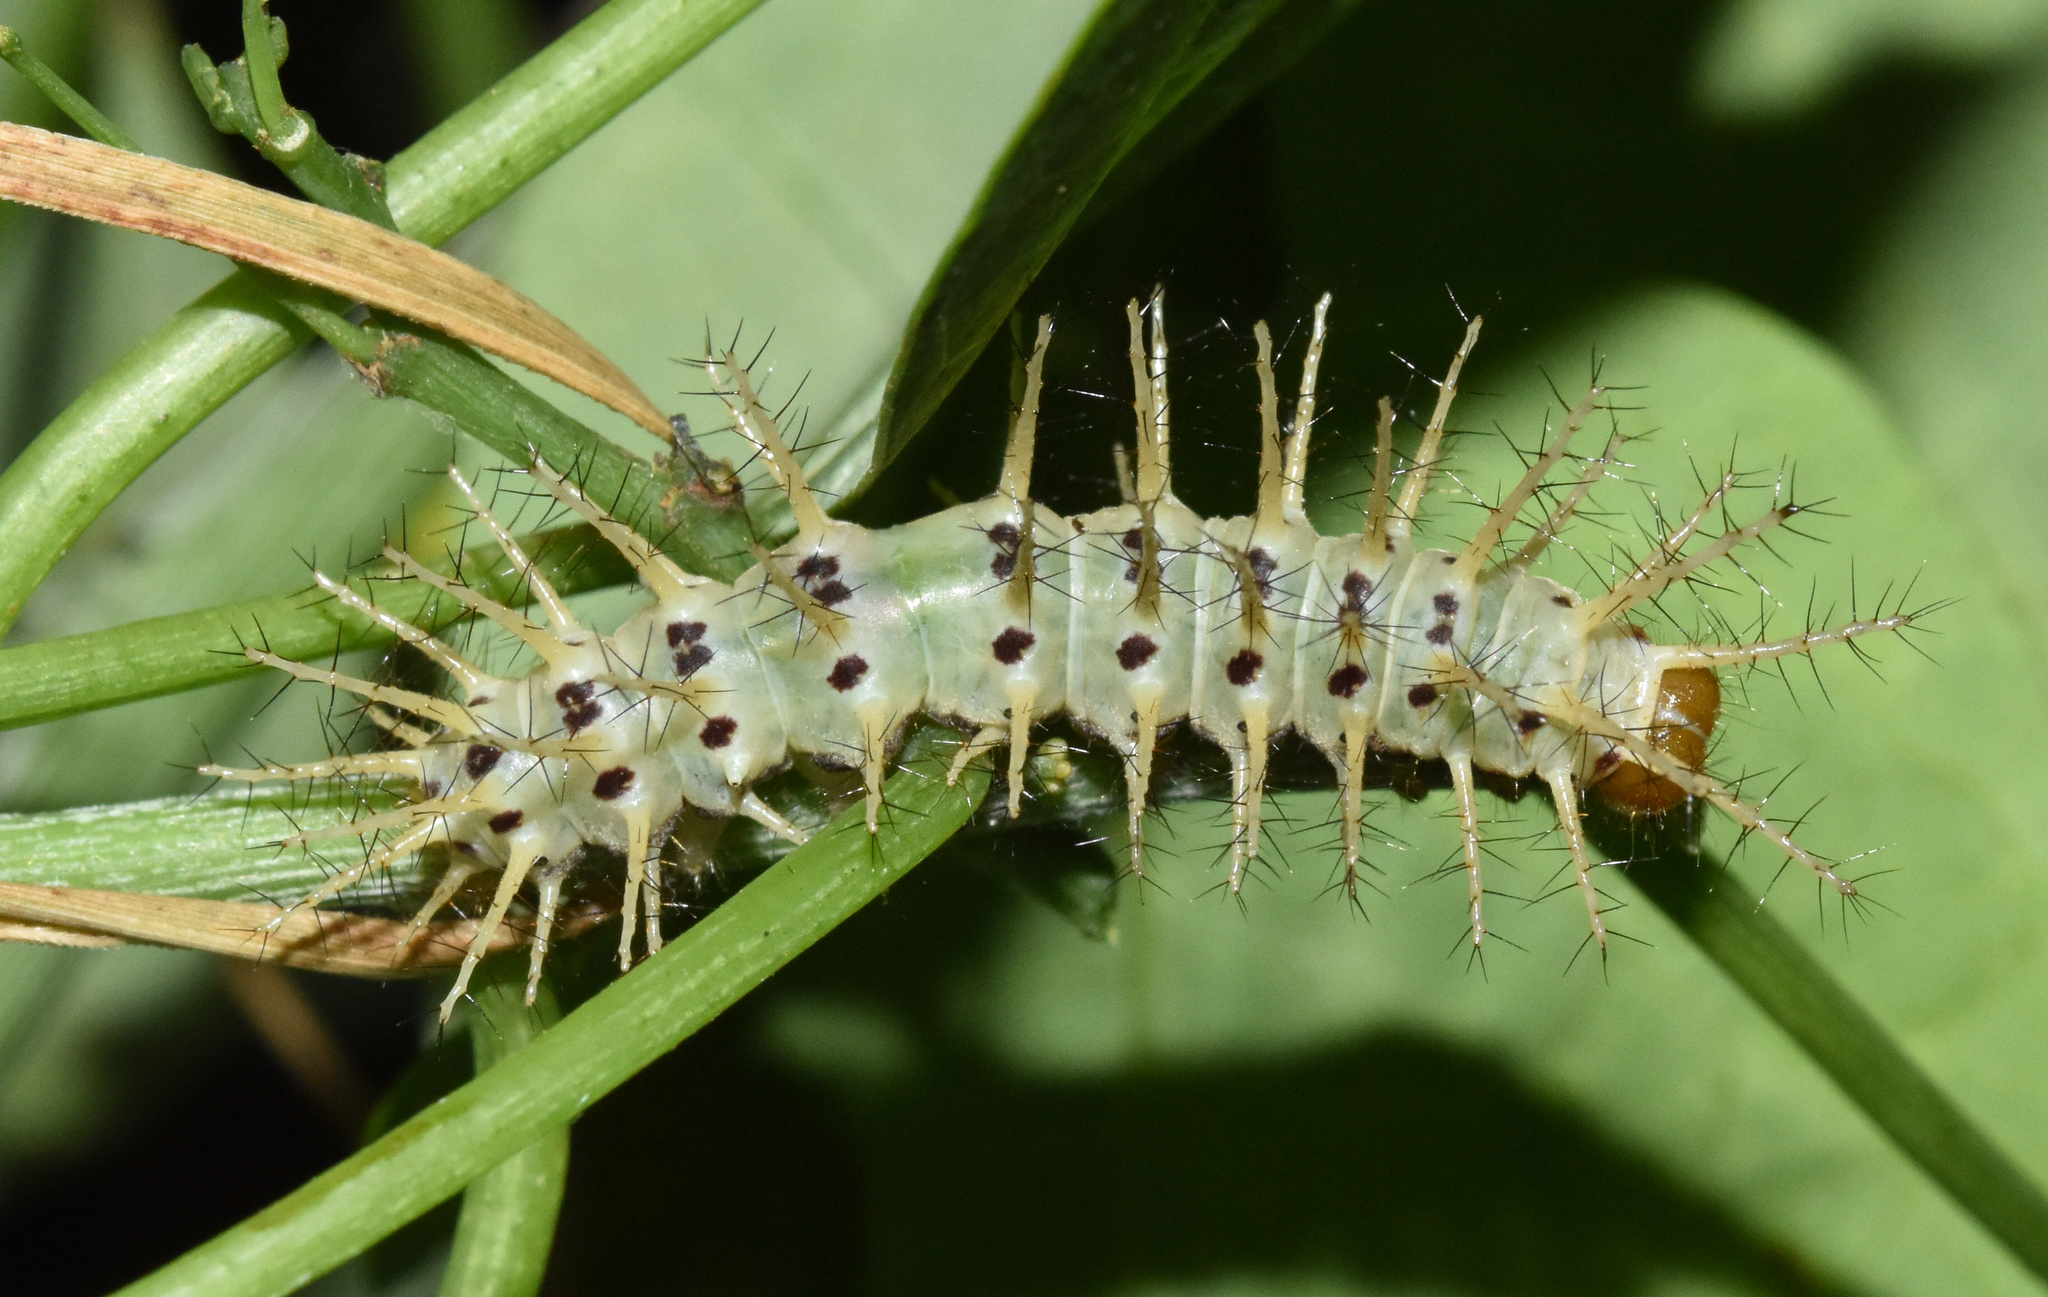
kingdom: Animalia
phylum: Arthropoda
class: Insecta
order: Lepidoptera
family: Nymphalidae
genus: Acraea
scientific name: Acraea Bematistes aganice
